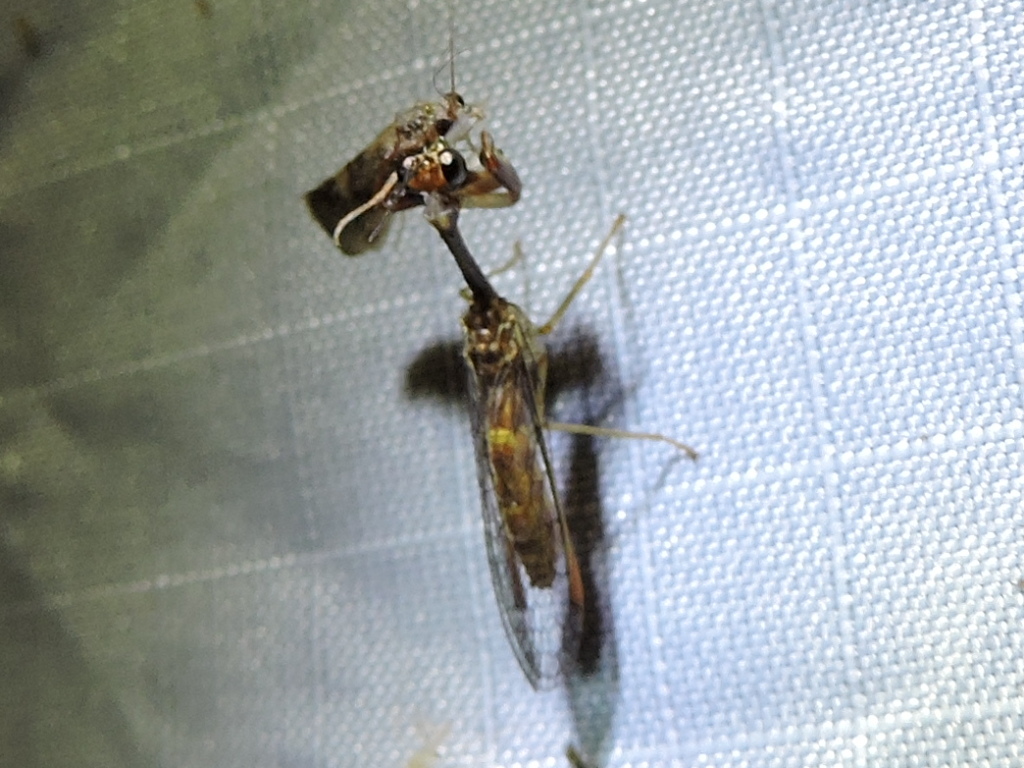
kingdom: Animalia
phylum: Arthropoda
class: Insecta
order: Neuroptera
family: Mantispidae
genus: Leptomantispa
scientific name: Leptomantispa pulchella
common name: Stevens's mantidfly
